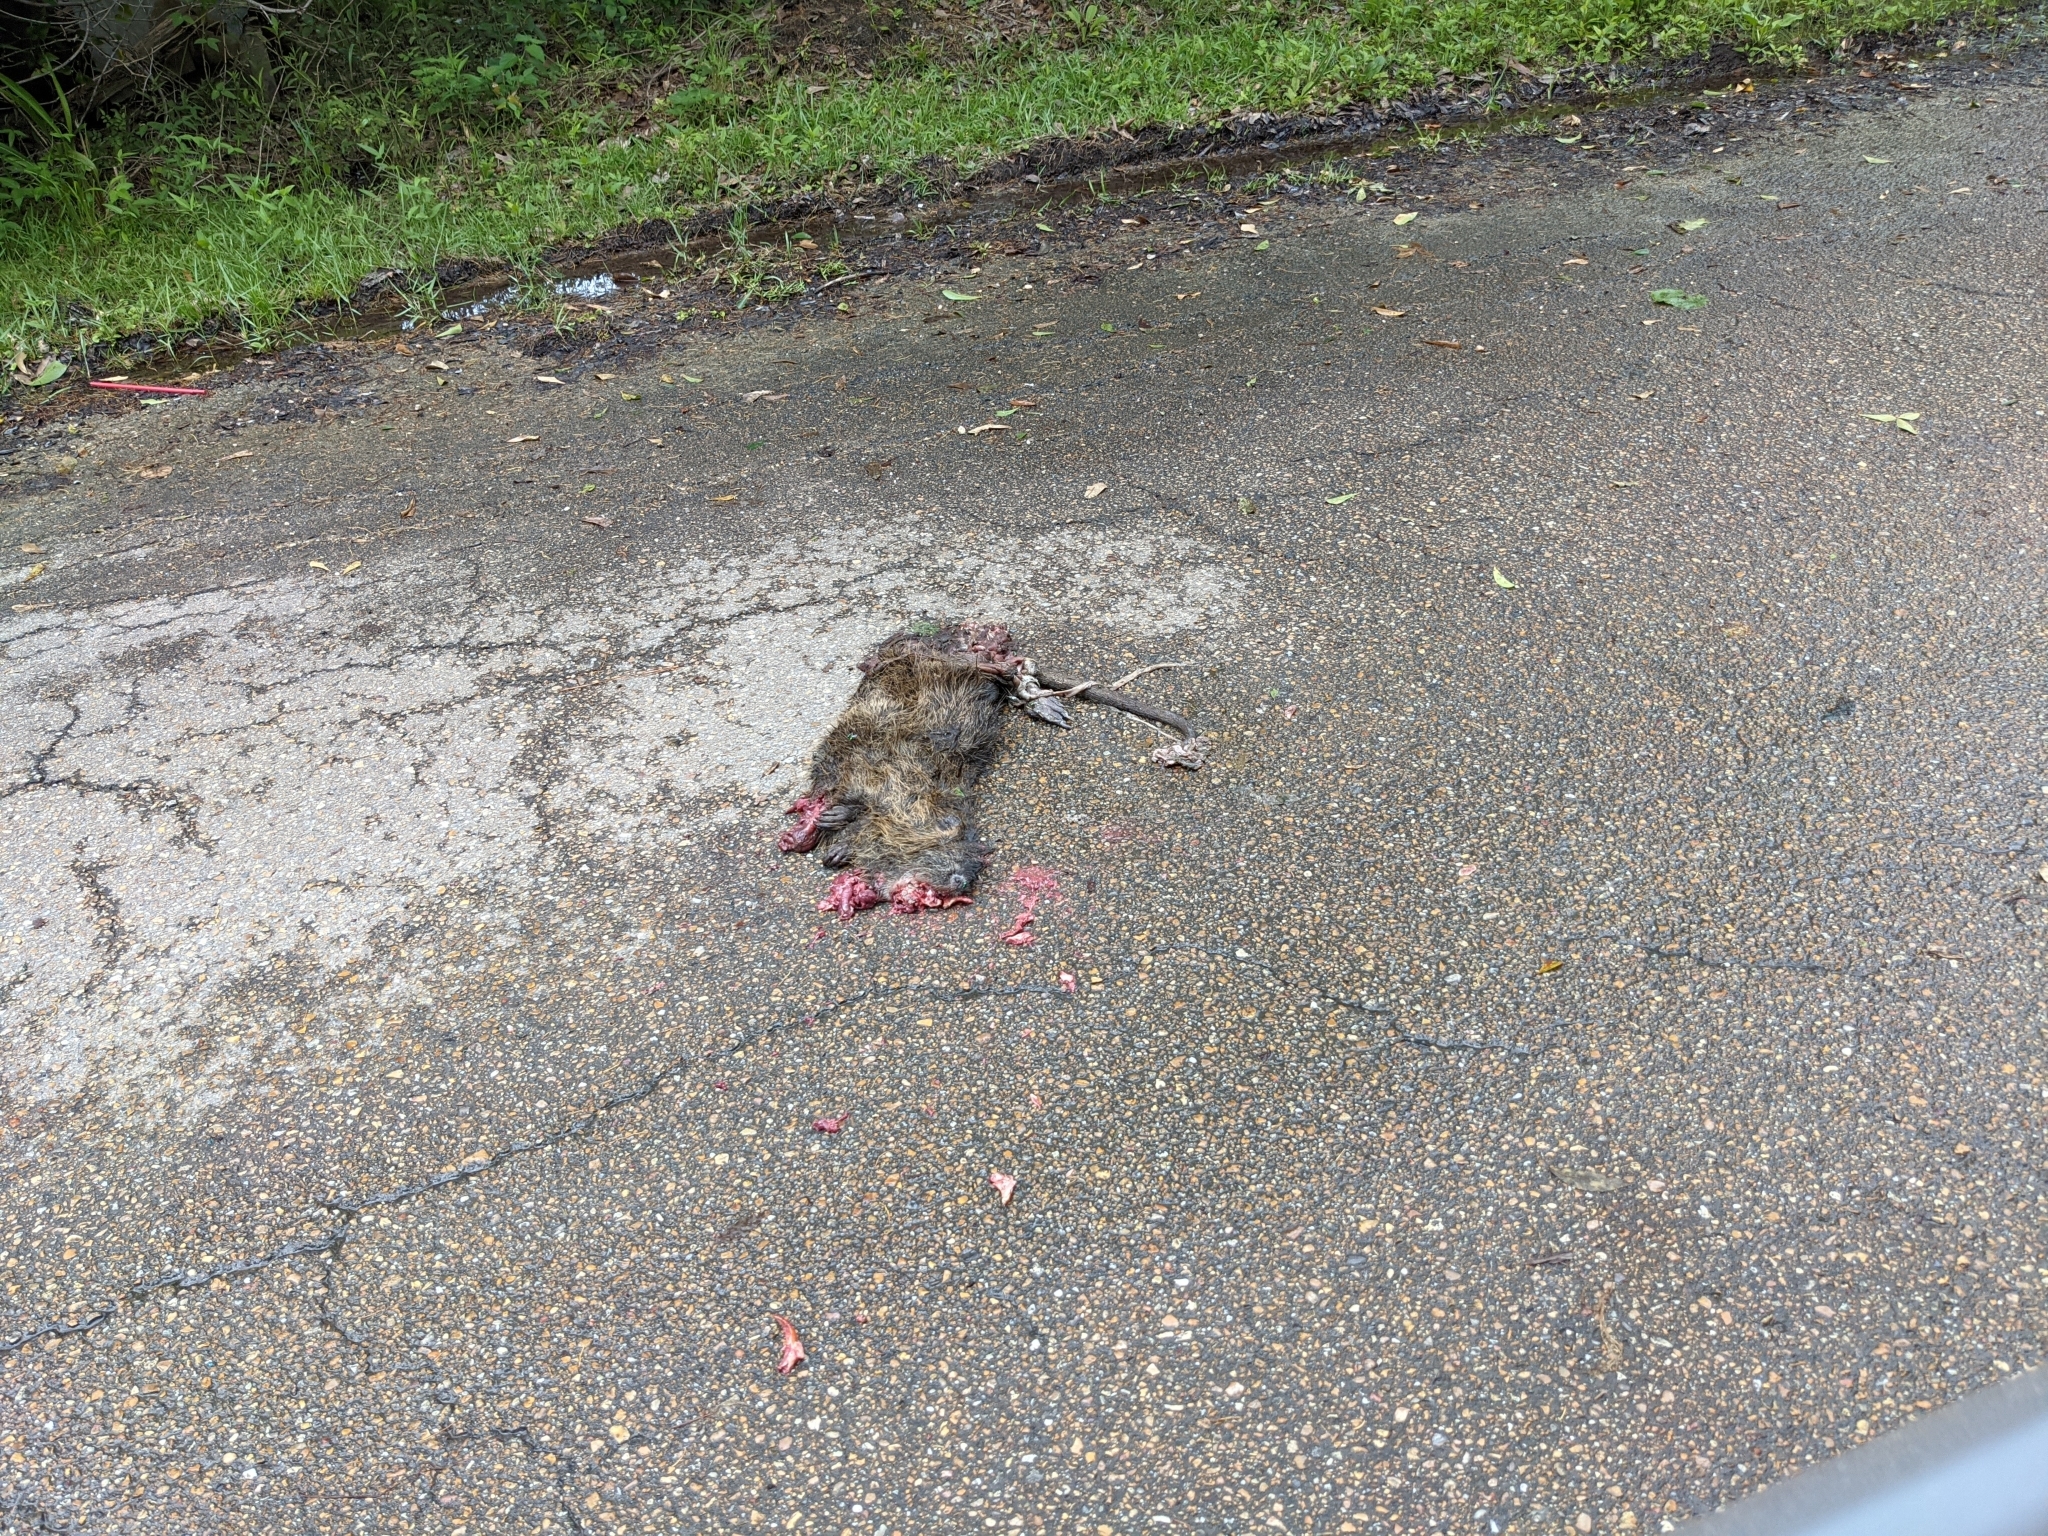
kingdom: Animalia
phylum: Chordata
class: Mammalia
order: Rodentia
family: Myocastoridae
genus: Myocastor
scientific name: Myocastor coypus
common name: Coypu
